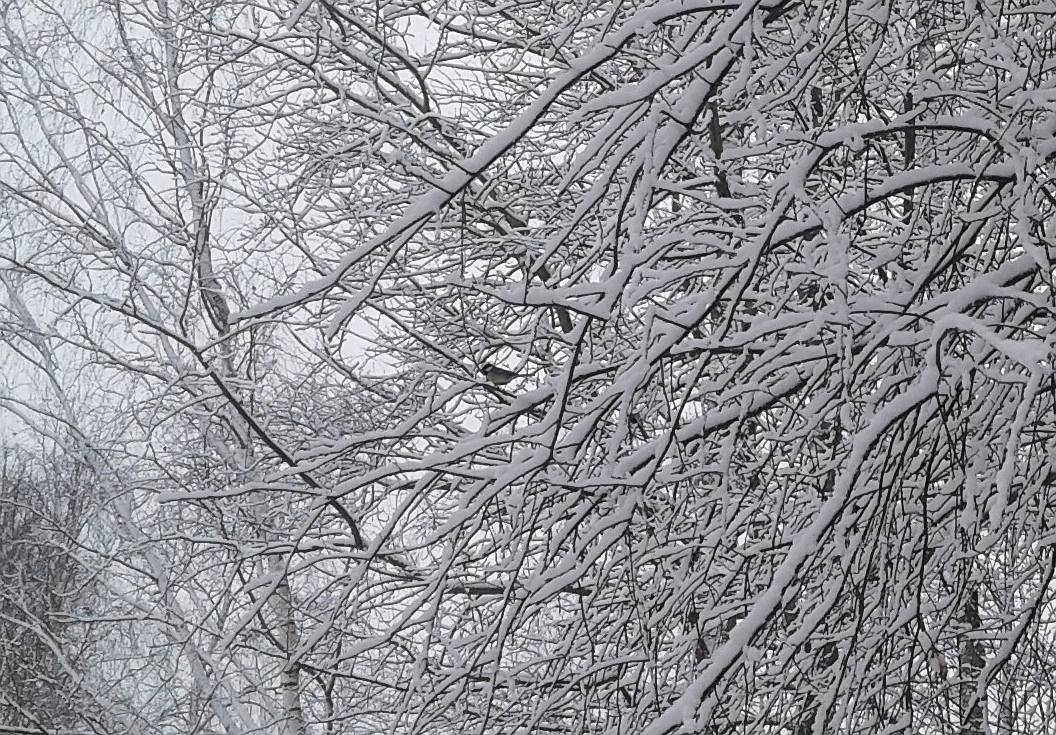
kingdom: Animalia
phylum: Chordata
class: Aves
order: Passeriformes
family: Paridae
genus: Parus
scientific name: Parus major
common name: Great tit
